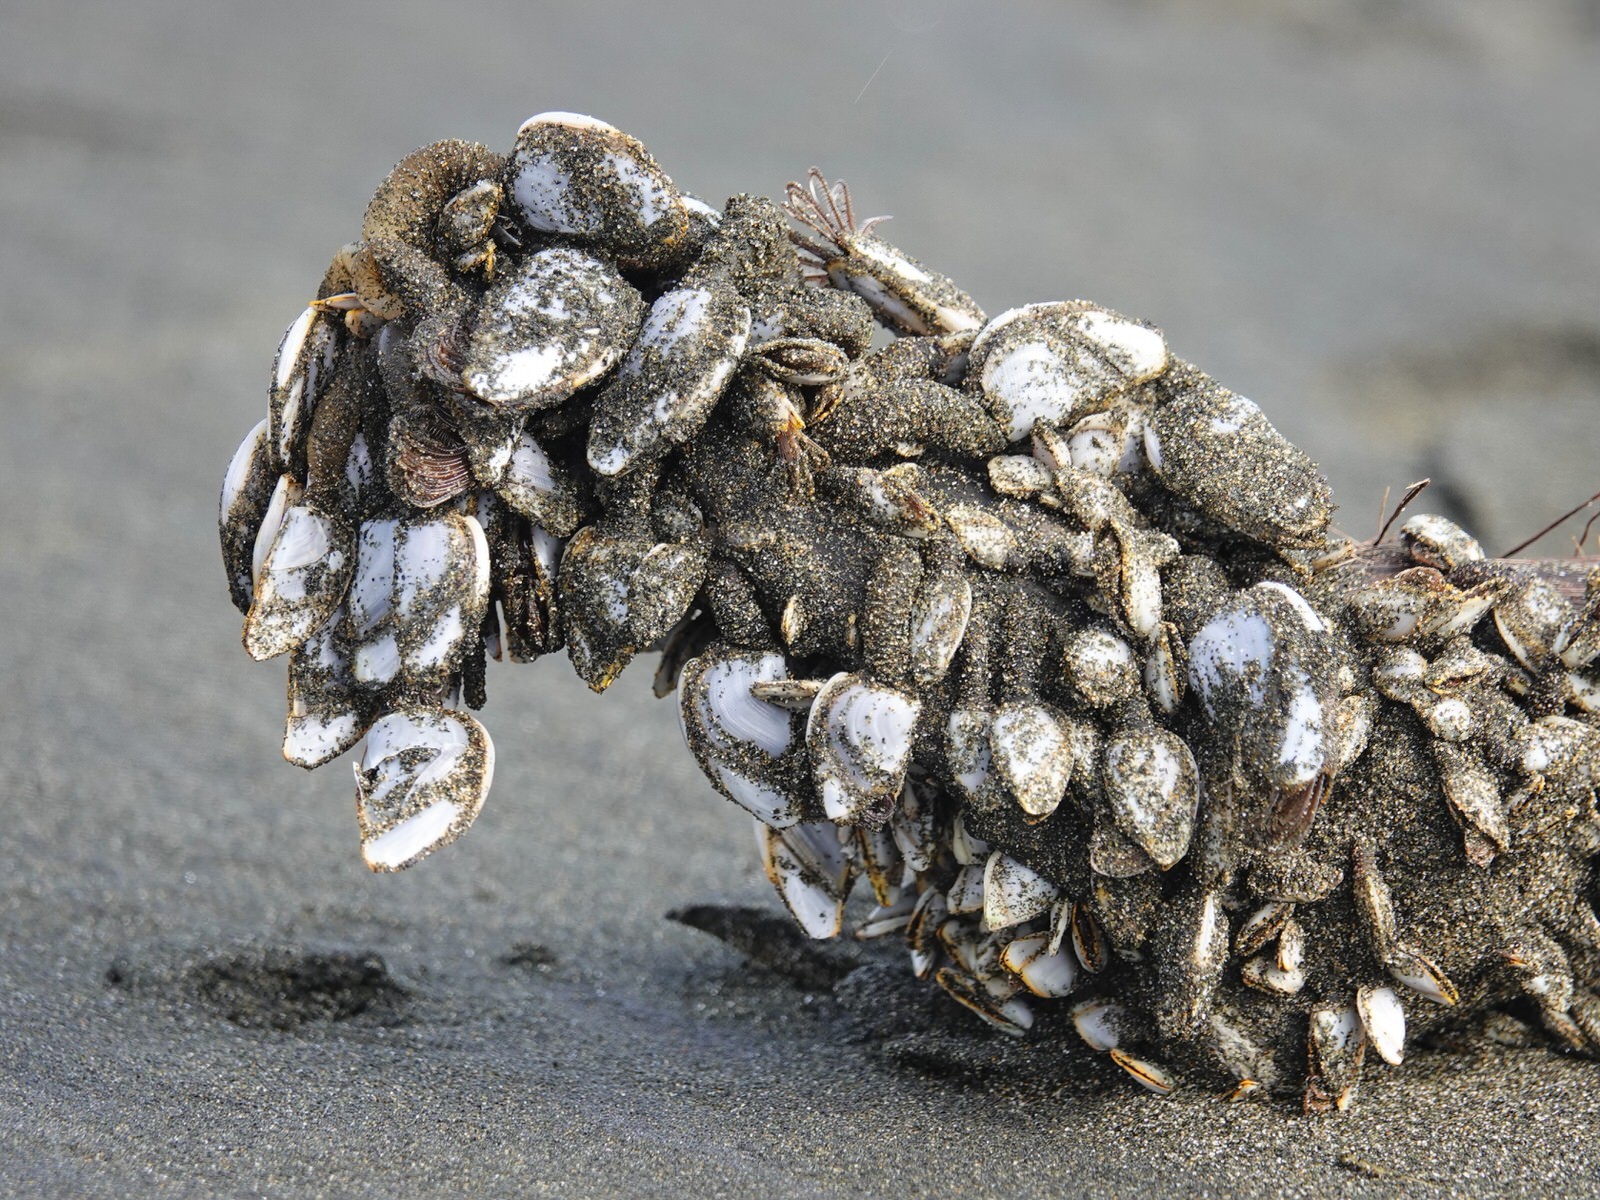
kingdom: Animalia
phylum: Arthropoda
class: Maxillopoda
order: Pedunculata
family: Lepadidae
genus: Lepas
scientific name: Lepas anatifera
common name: Common goose barnacle
